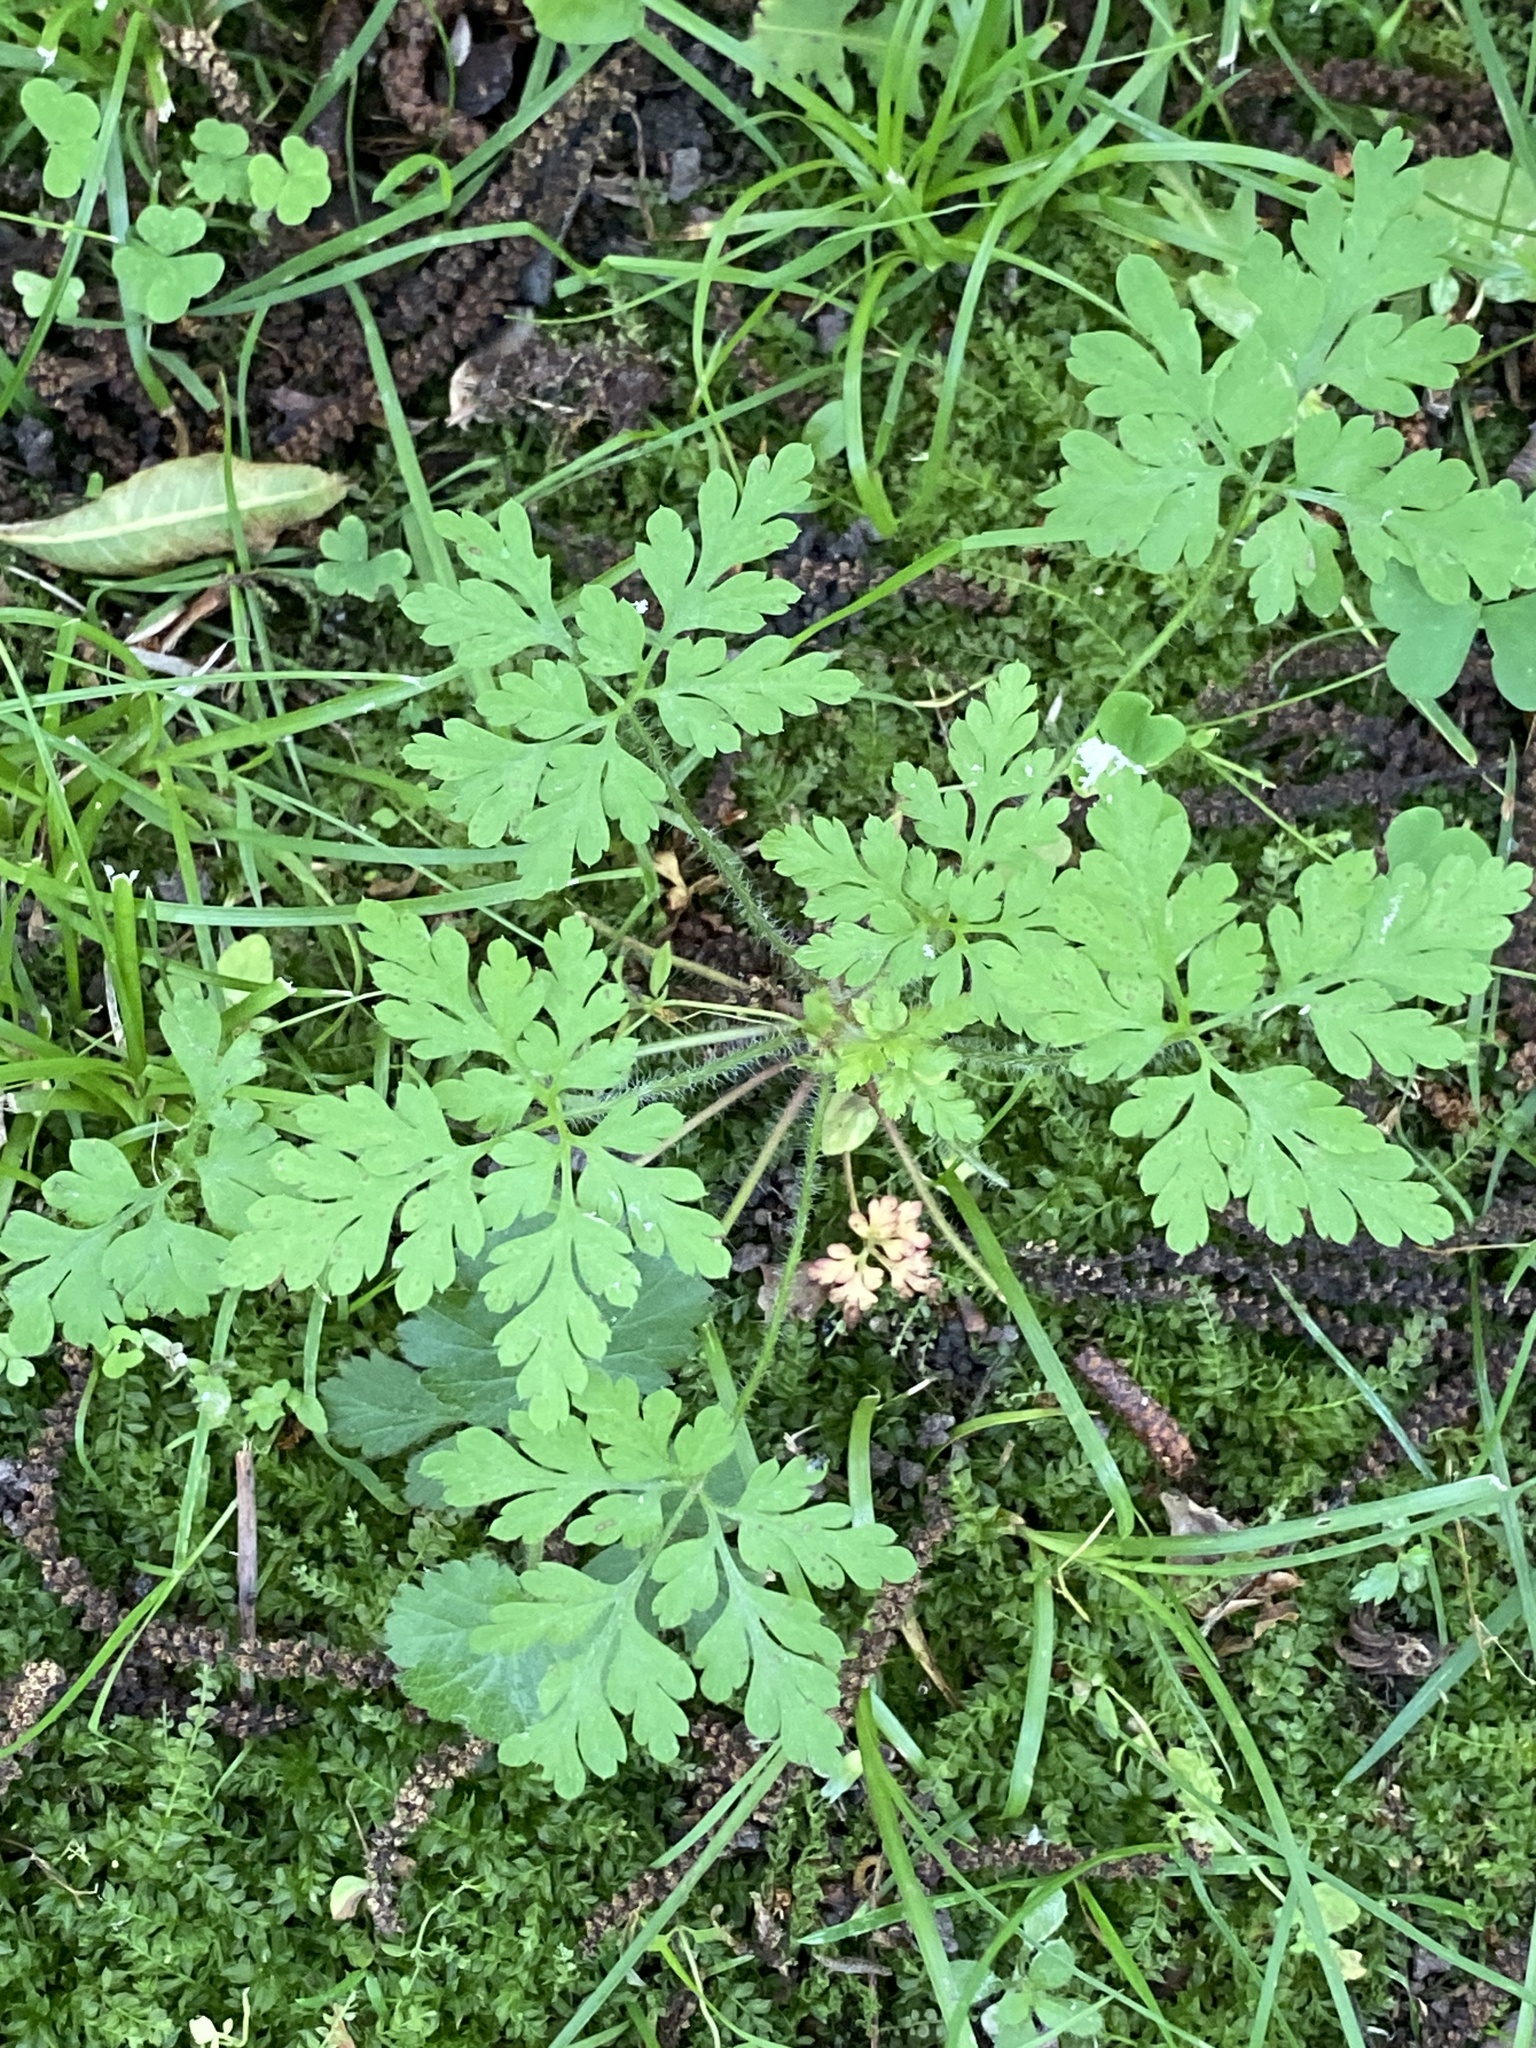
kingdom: Plantae
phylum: Tracheophyta
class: Magnoliopsida
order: Geraniales
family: Geraniaceae
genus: Geranium
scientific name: Geranium robertianum
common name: Herb-robert
